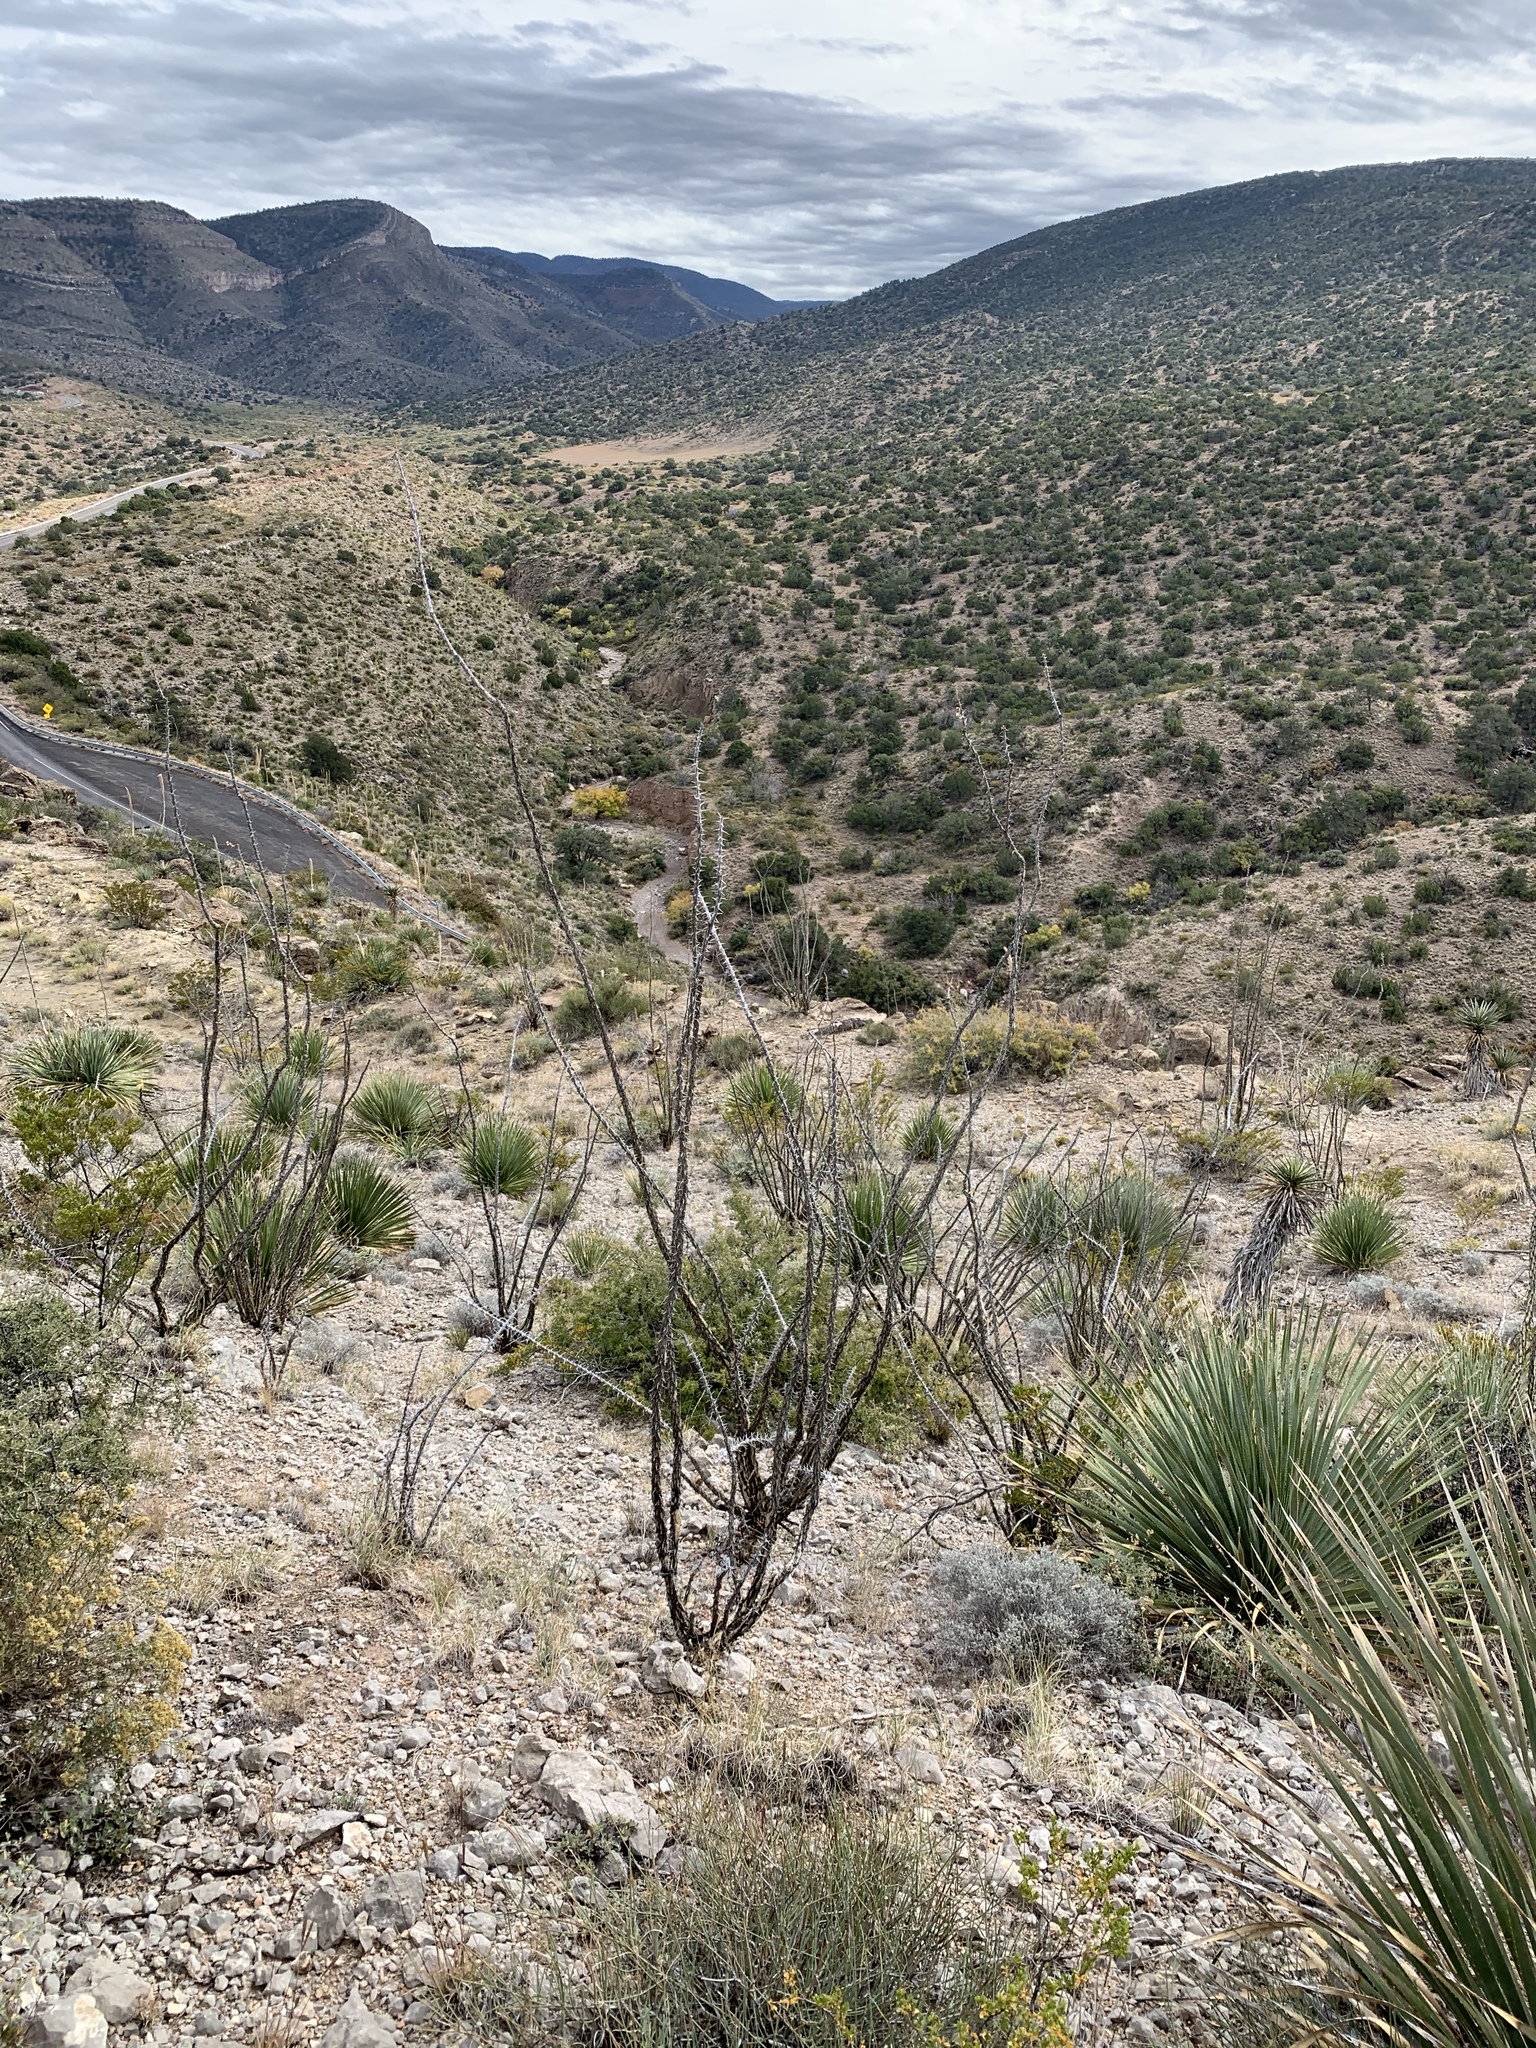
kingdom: Plantae
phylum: Tracheophyta
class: Magnoliopsida
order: Ericales
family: Fouquieriaceae
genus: Fouquieria
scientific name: Fouquieria splendens
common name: Vine-cactus
